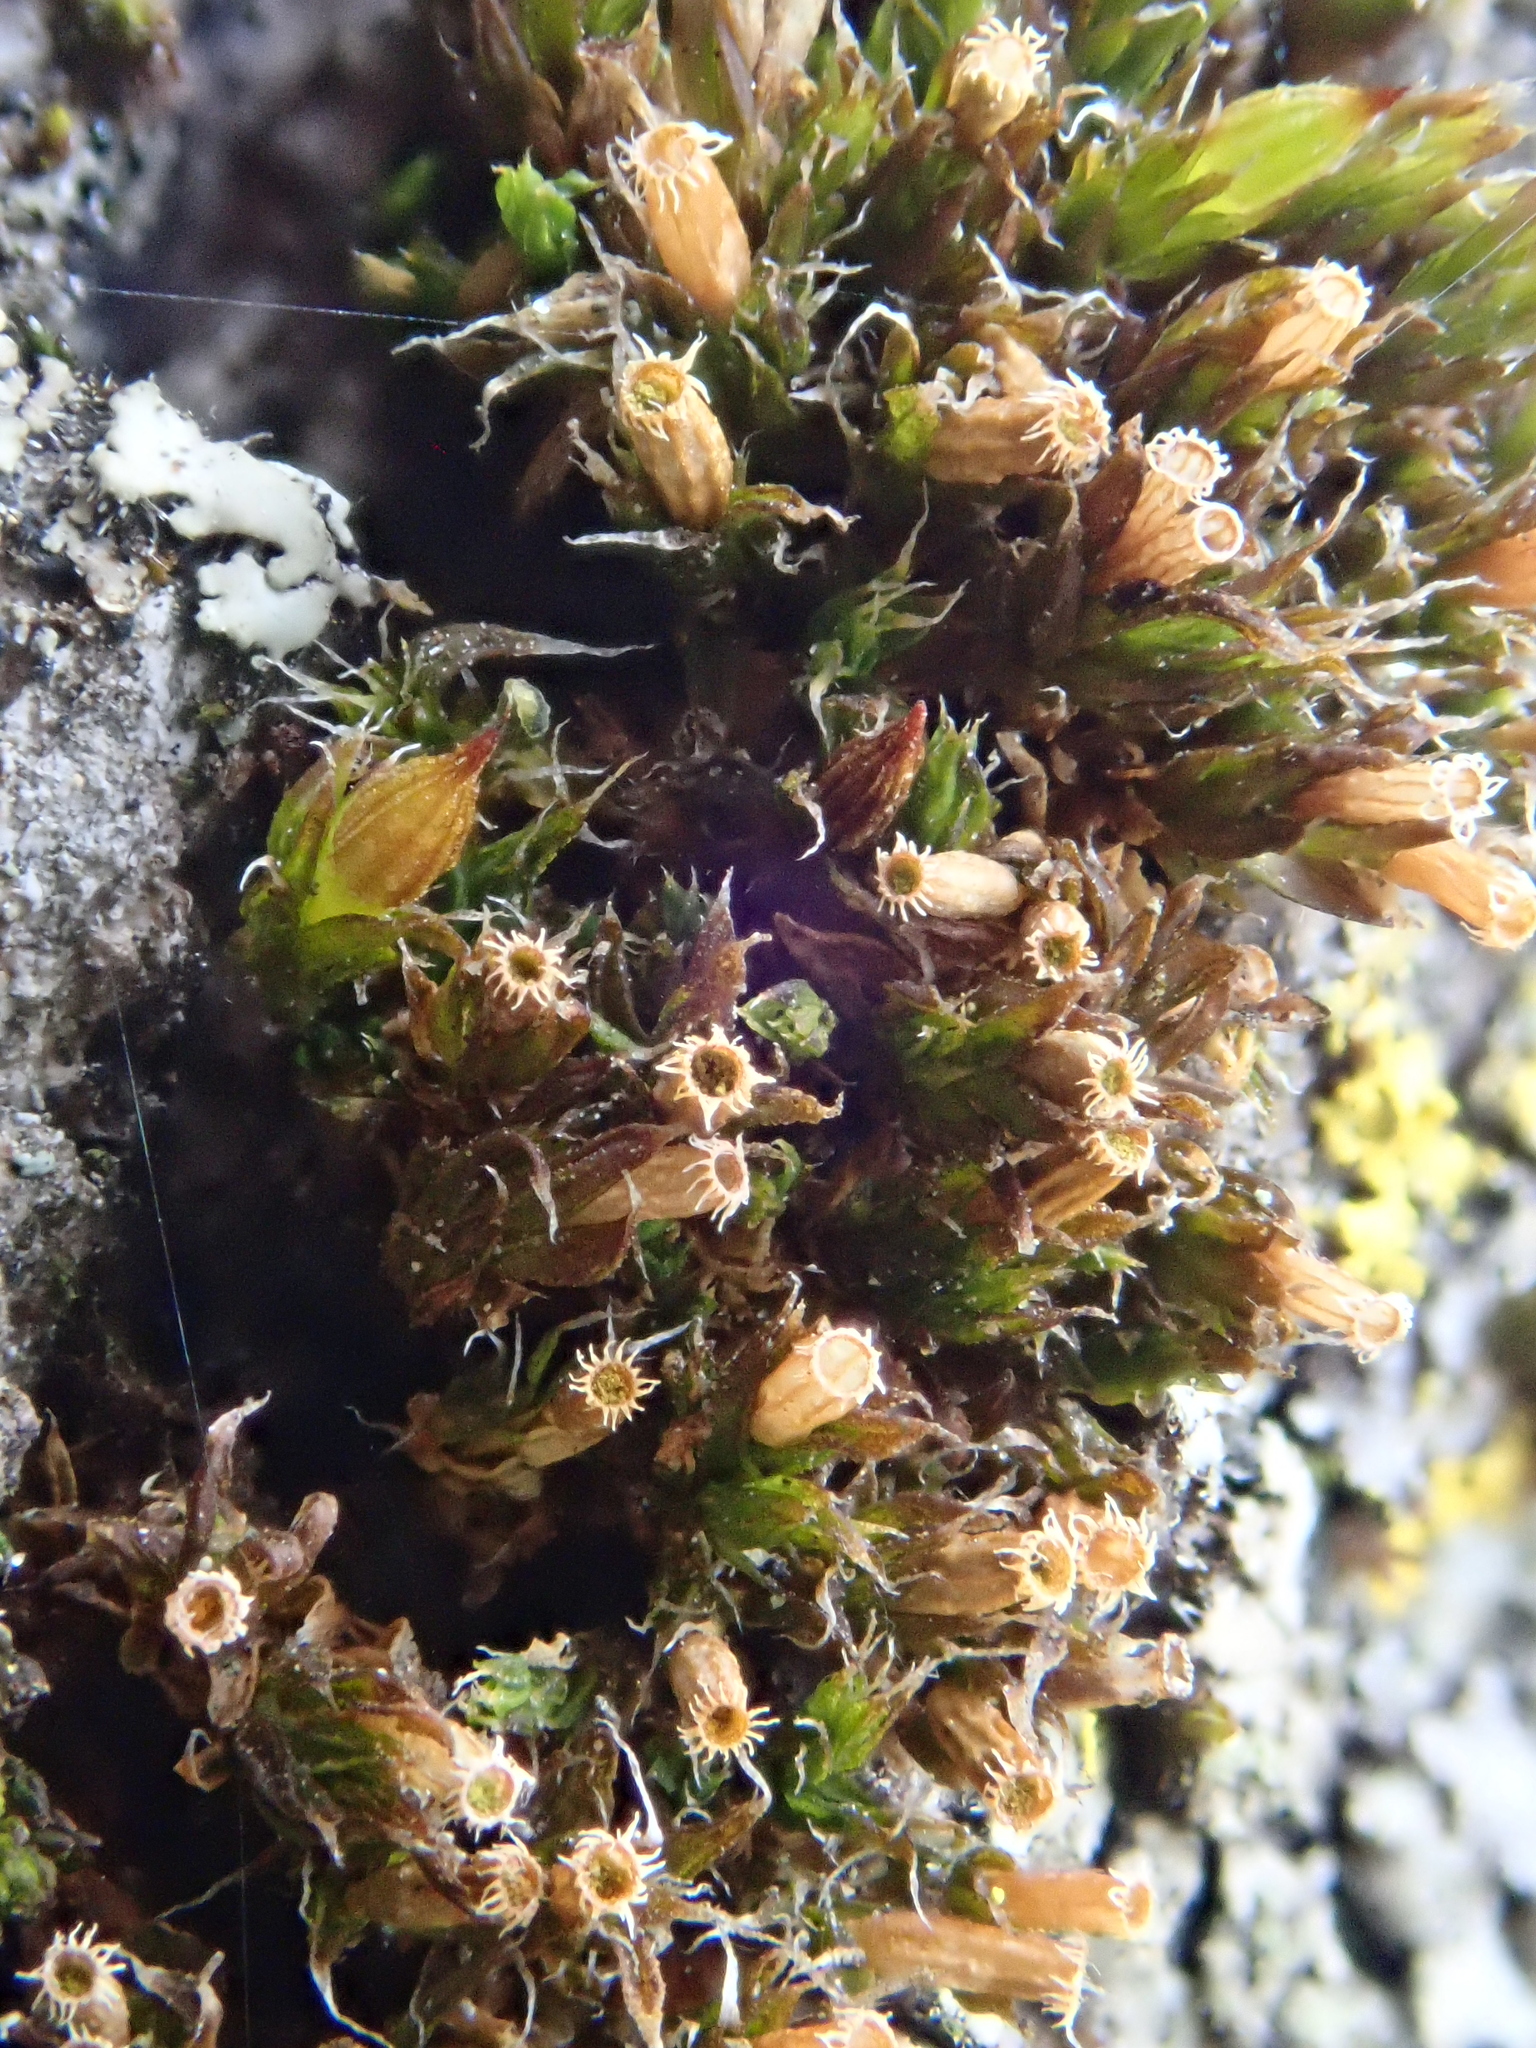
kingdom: Plantae
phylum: Bryophyta
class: Bryopsida
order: Orthotrichales
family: Orthotrichaceae
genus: Nyholmiella
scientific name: Nyholmiella obtusifolia
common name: Blunt-leaved bristle-moss
